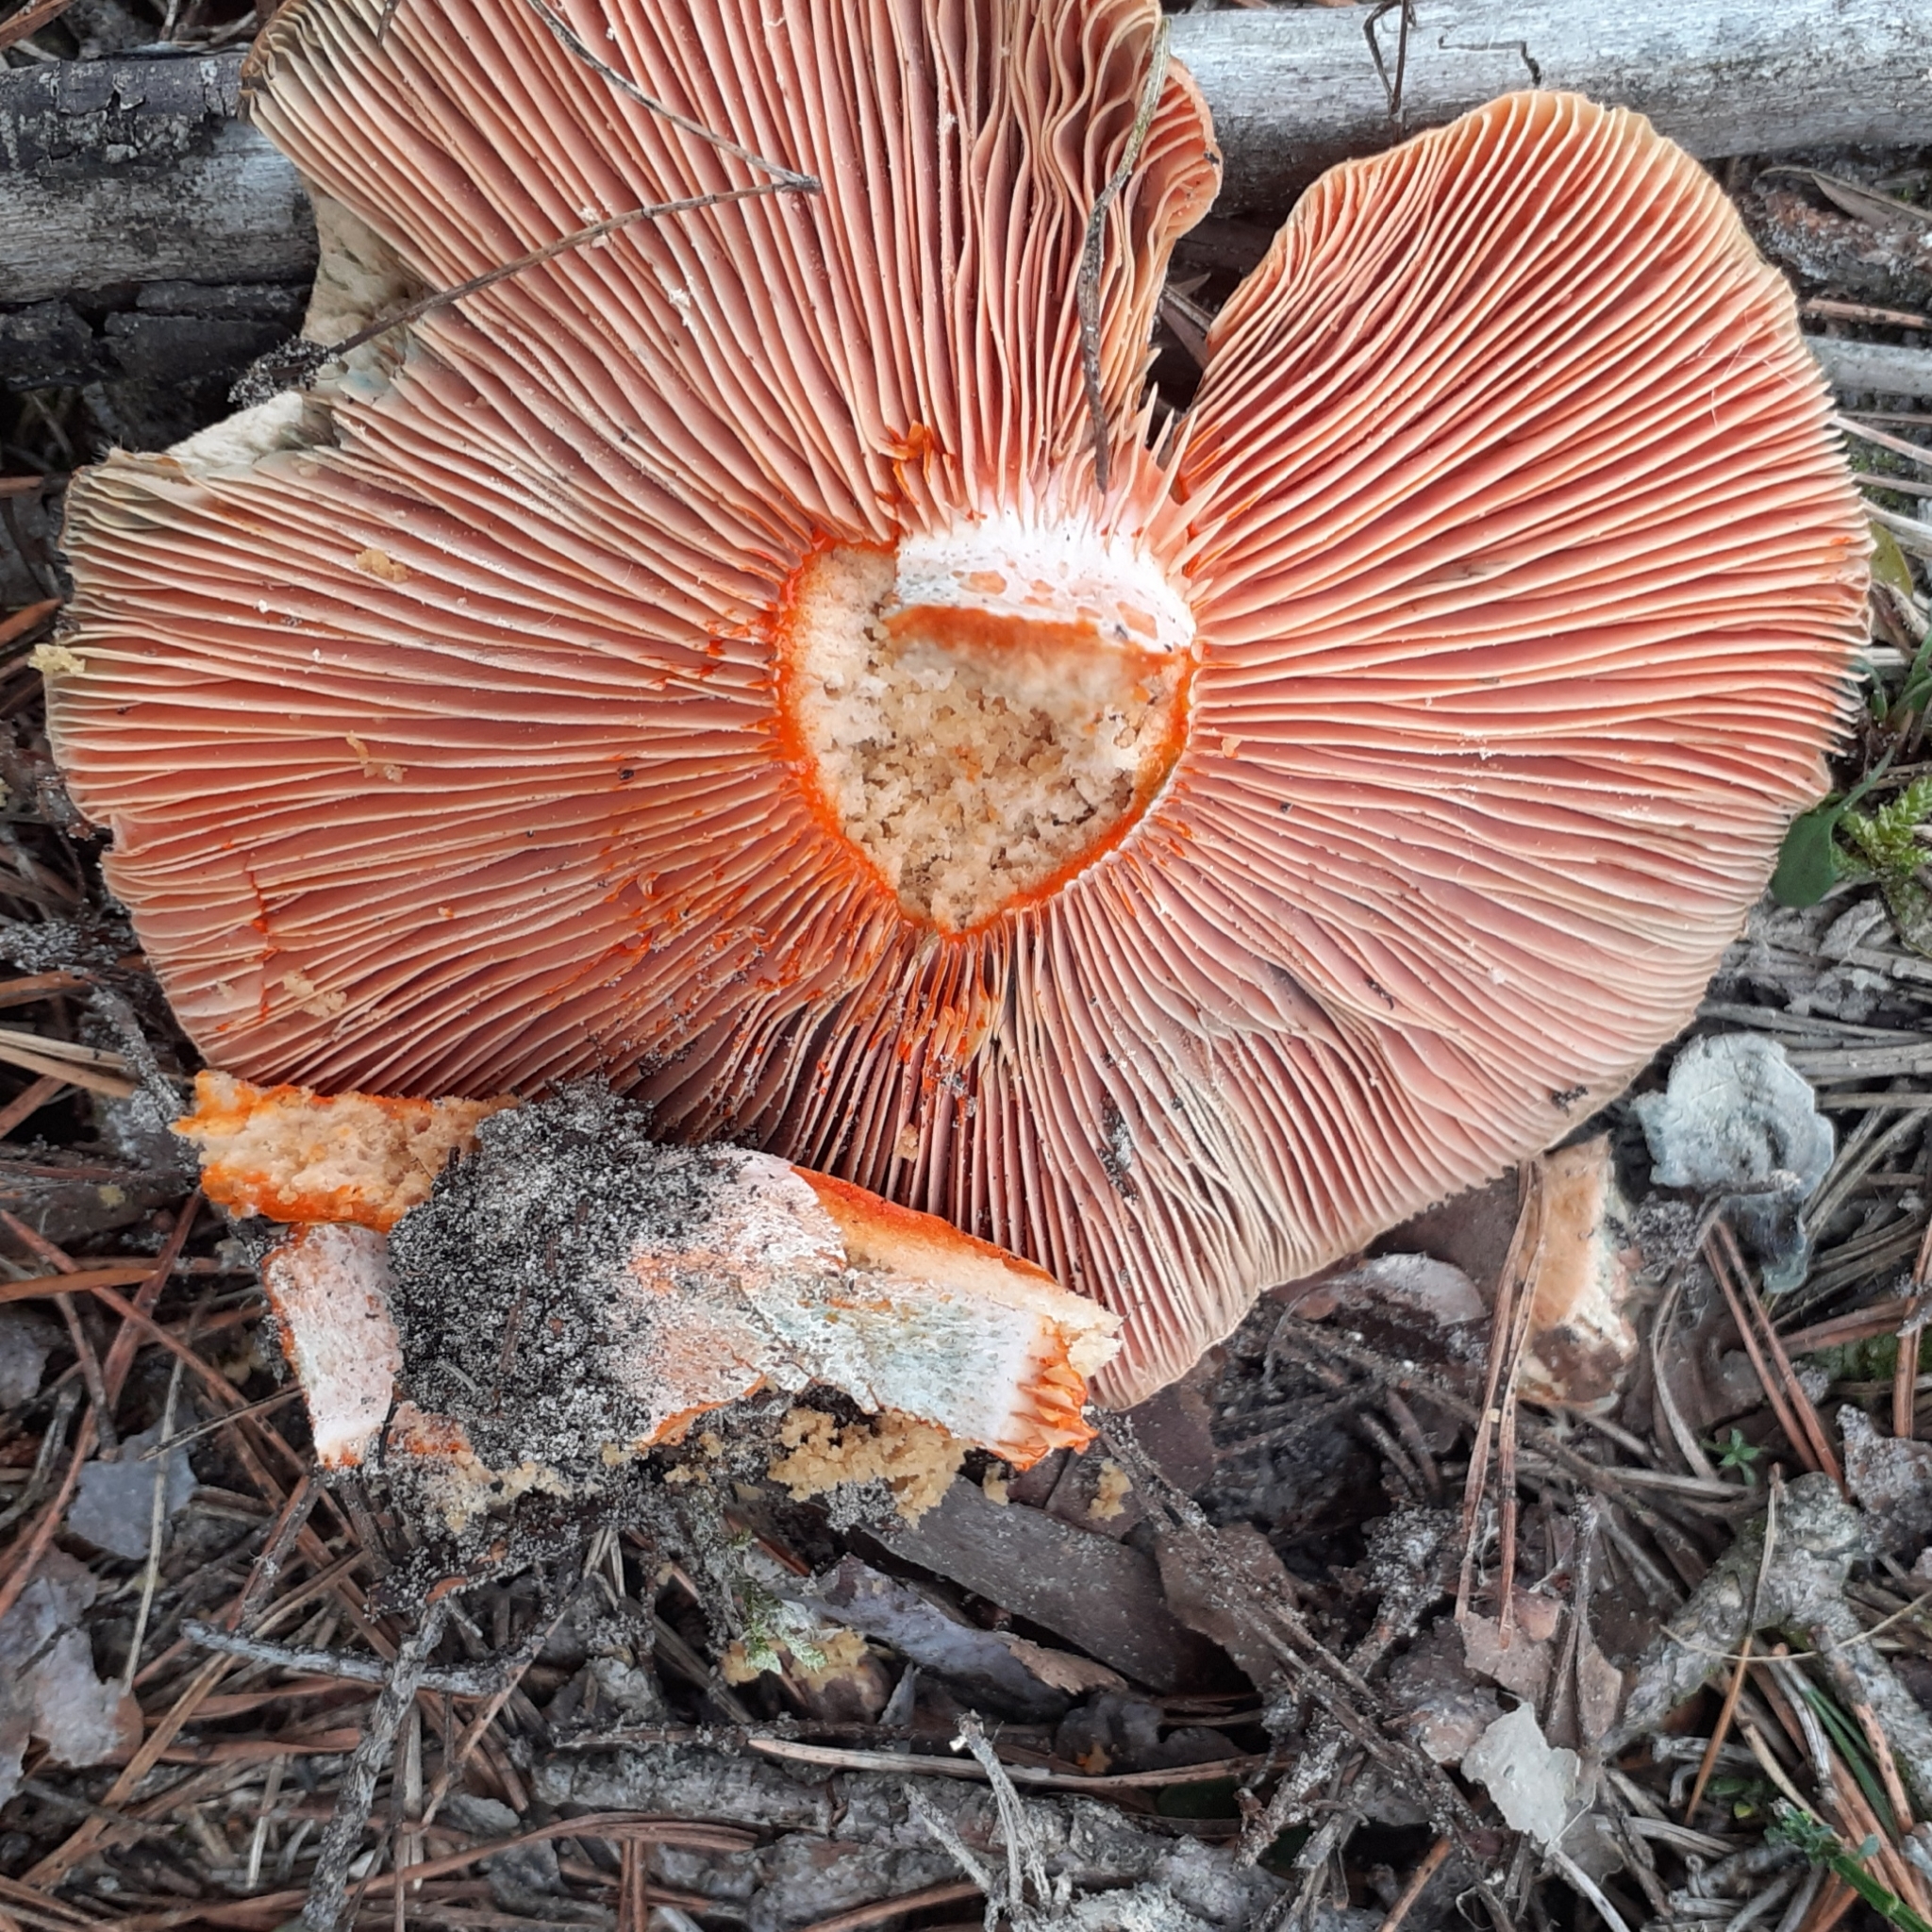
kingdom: Fungi
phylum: Basidiomycota
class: Agaricomycetes
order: Russulales
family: Russulaceae
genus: Lactarius
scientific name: Lactarius deliciosus
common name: Saffron milk-cap
